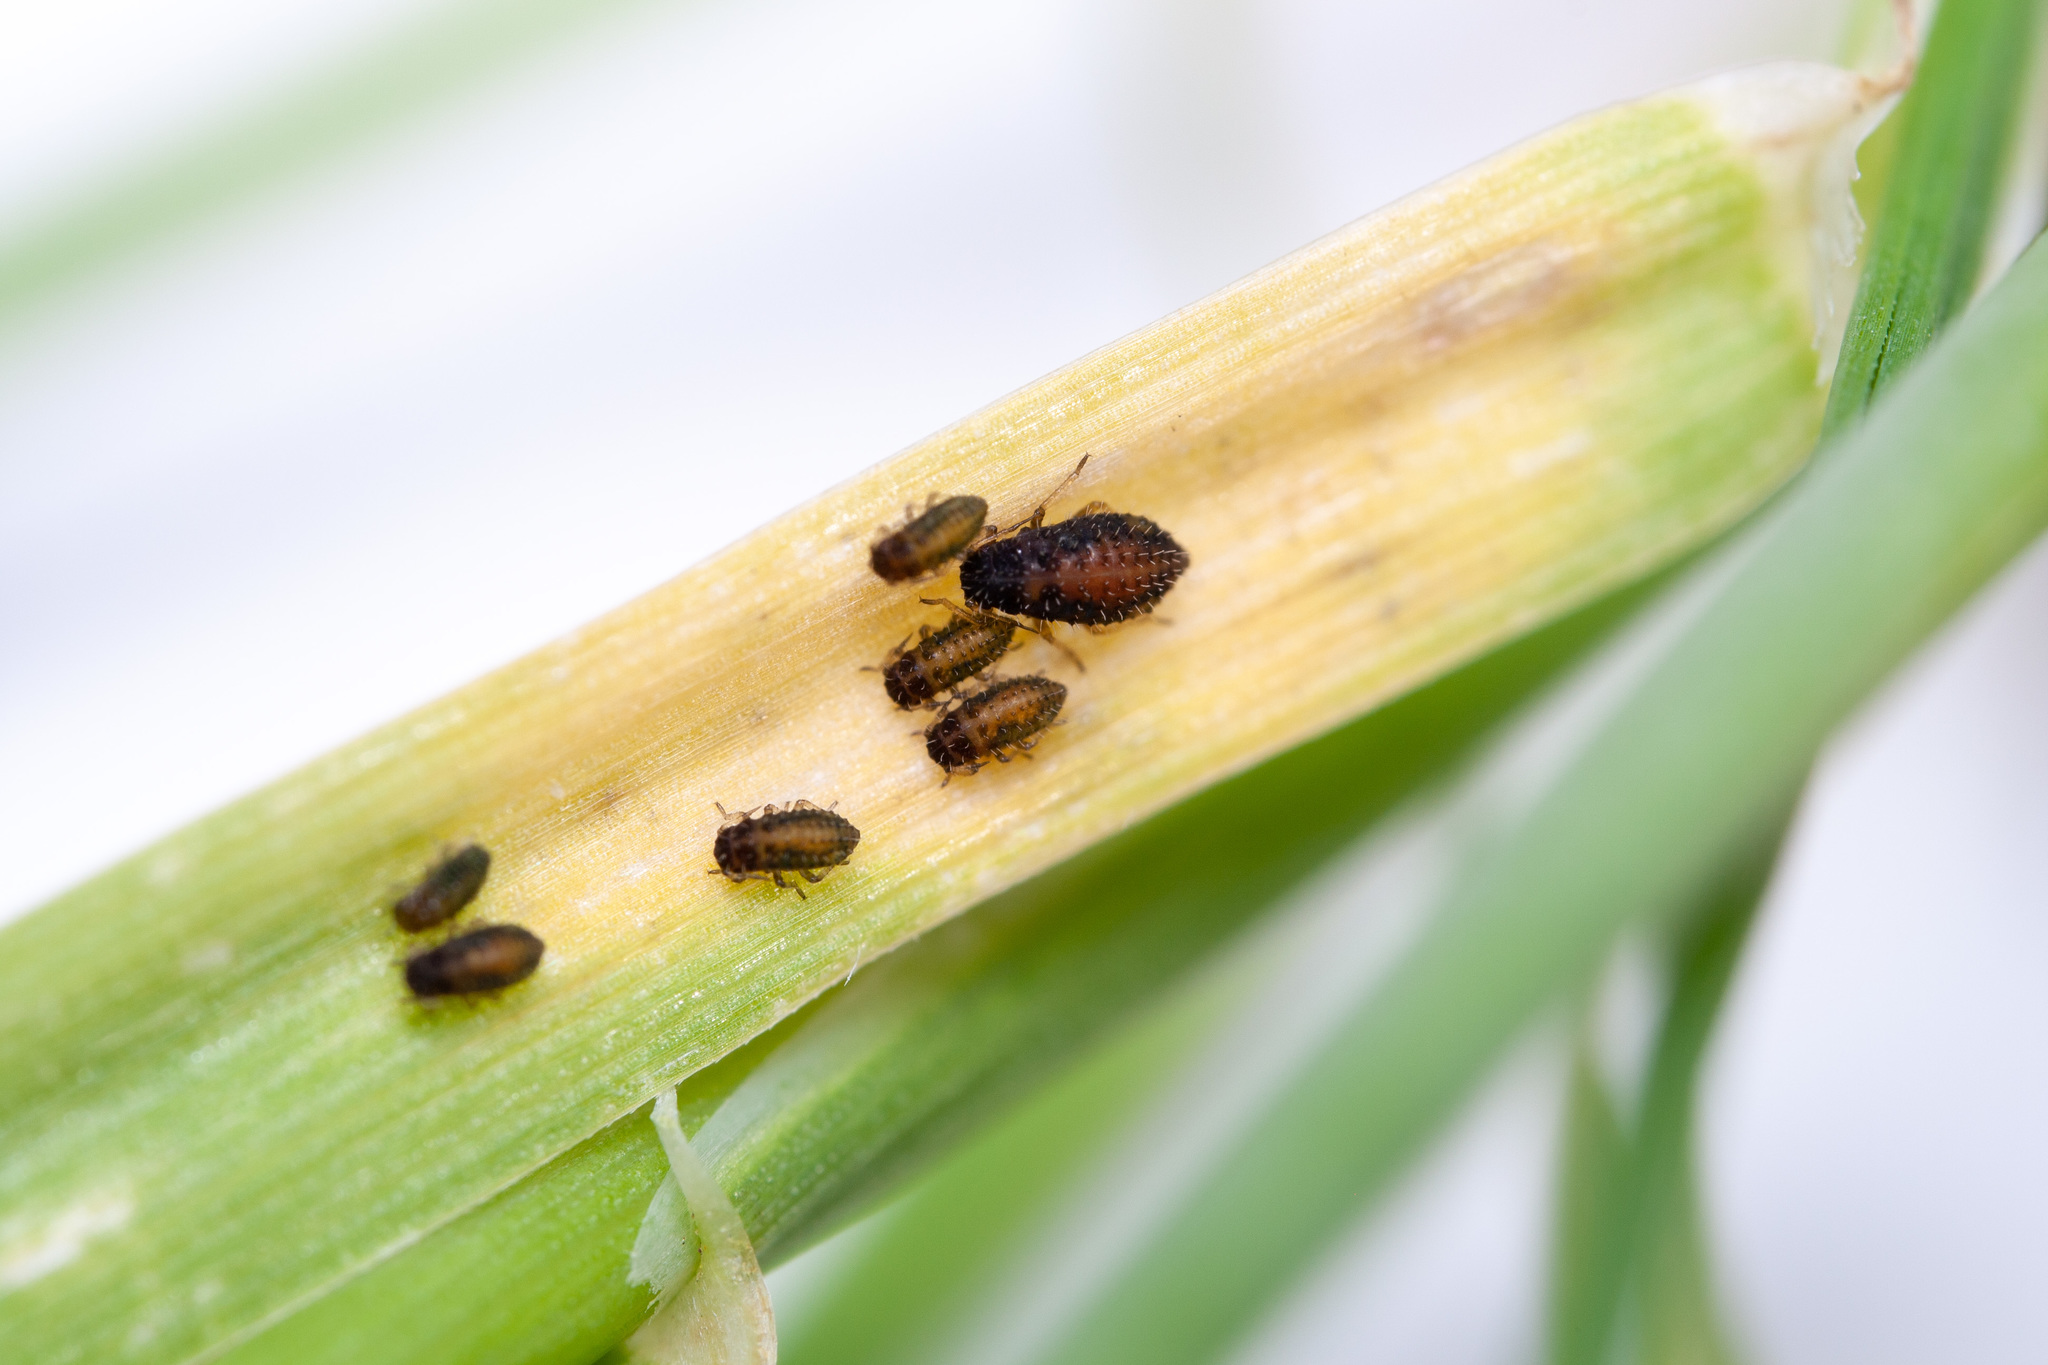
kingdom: Animalia
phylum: Arthropoda
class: Insecta
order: Hemiptera
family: Aphididae
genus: Sipha
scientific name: Sipha maydis
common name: Aphid
